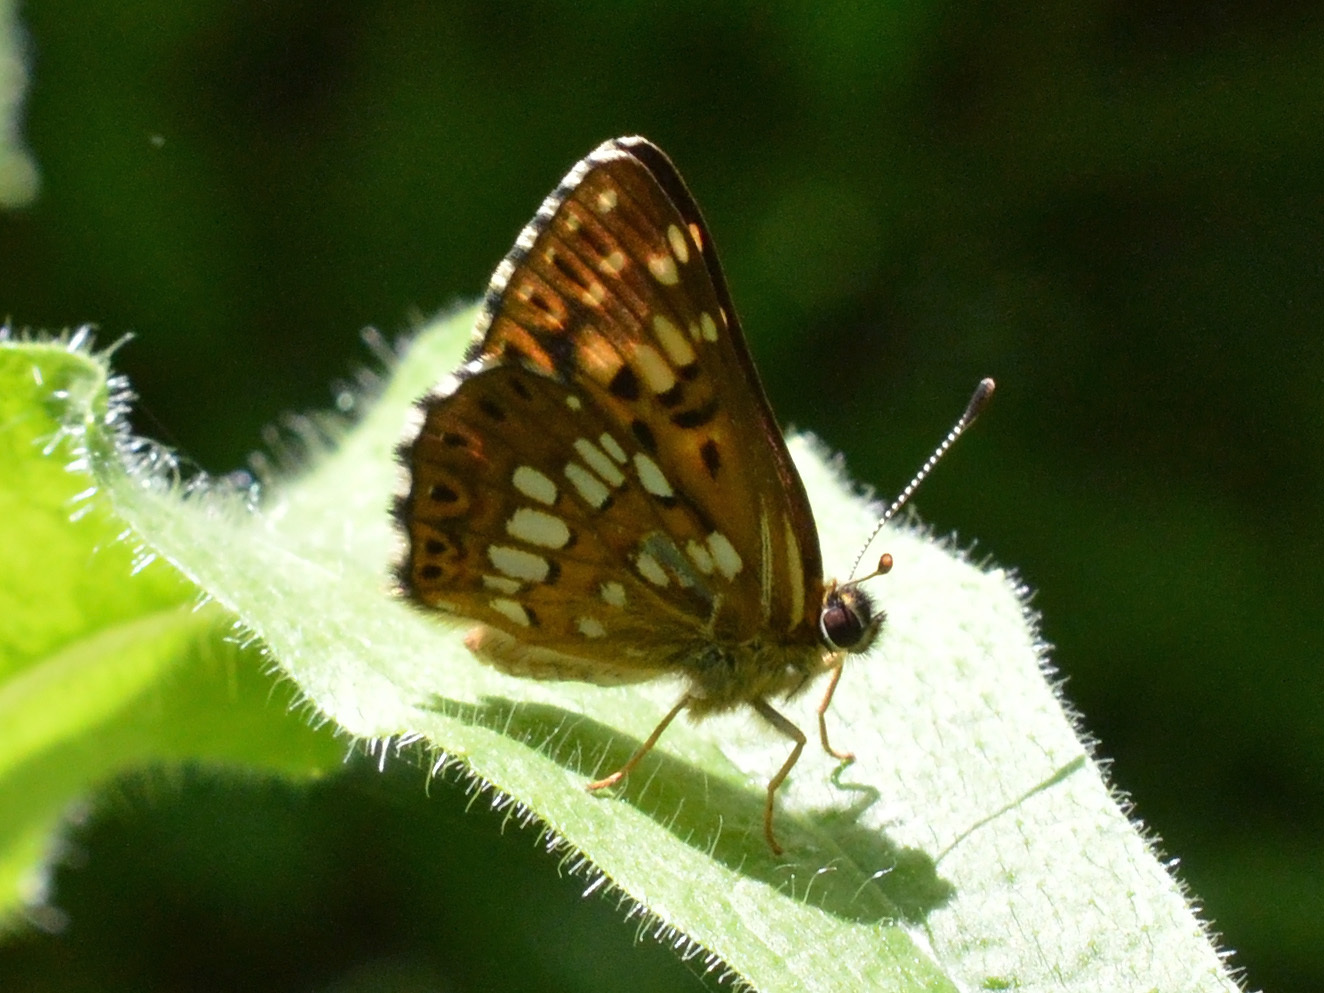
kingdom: Animalia
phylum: Arthropoda
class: Insecta
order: Lepidoptera
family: Riodinidae
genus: Hamearis
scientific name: Hamearis lucina
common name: Duke of burgundy fritillary
